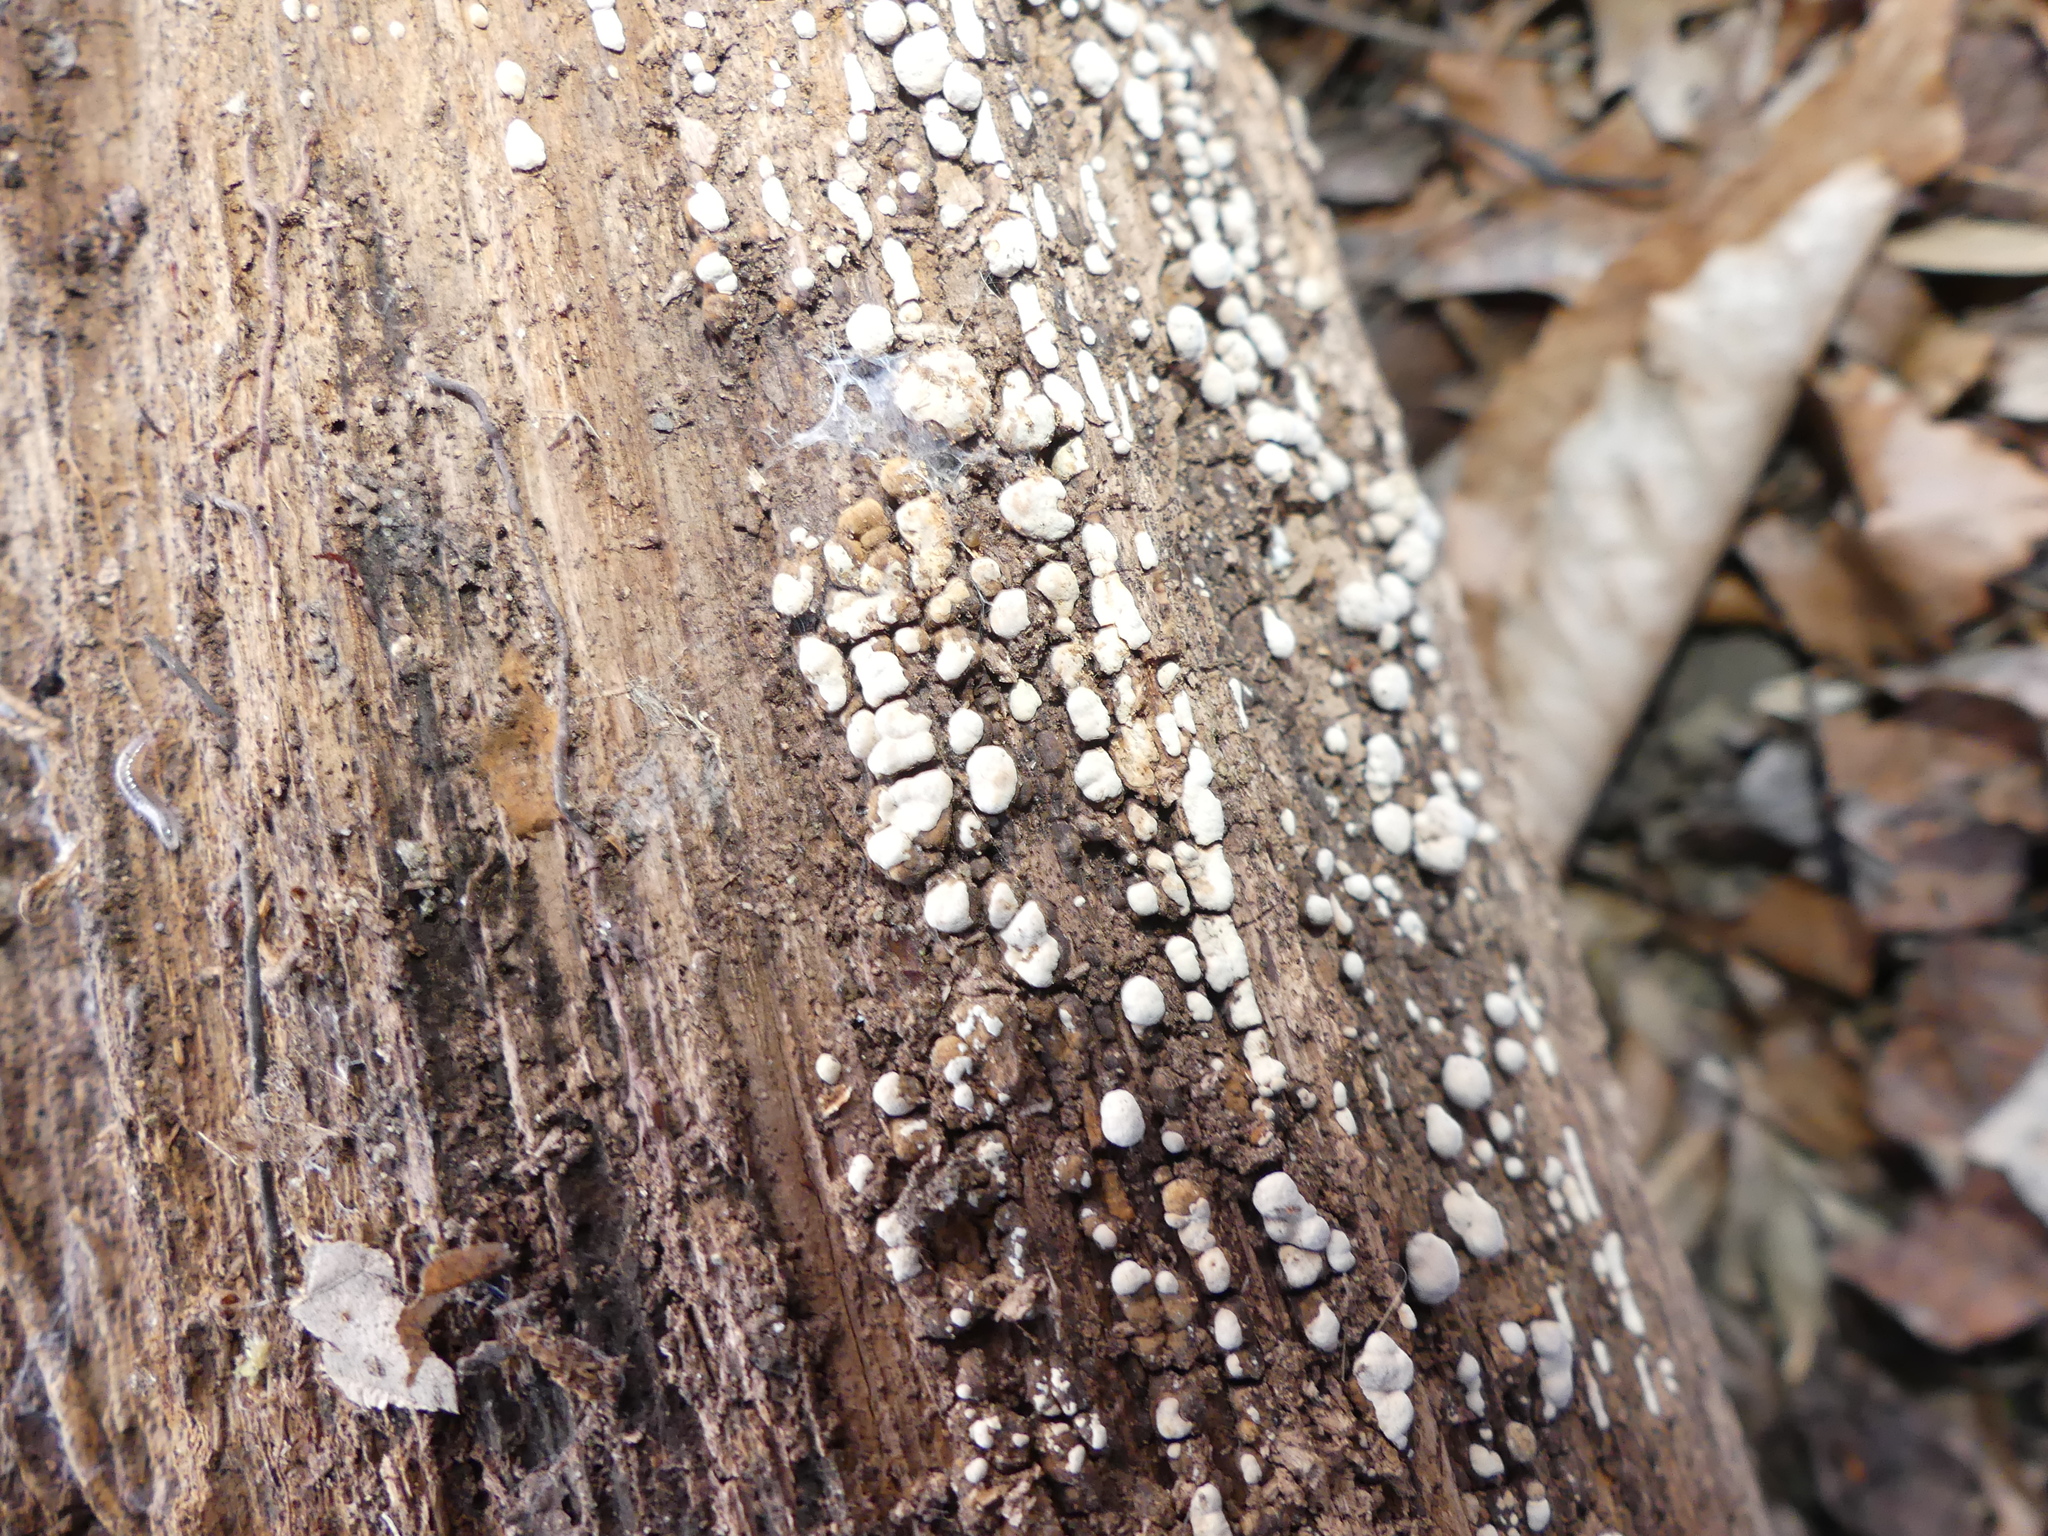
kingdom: Fungi
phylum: Basidiomycota
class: Agaricomycetes
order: Russulales
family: Stereaceae
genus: Xylobolus
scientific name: Xylobolus frustulatus
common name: Ceramic parchment
